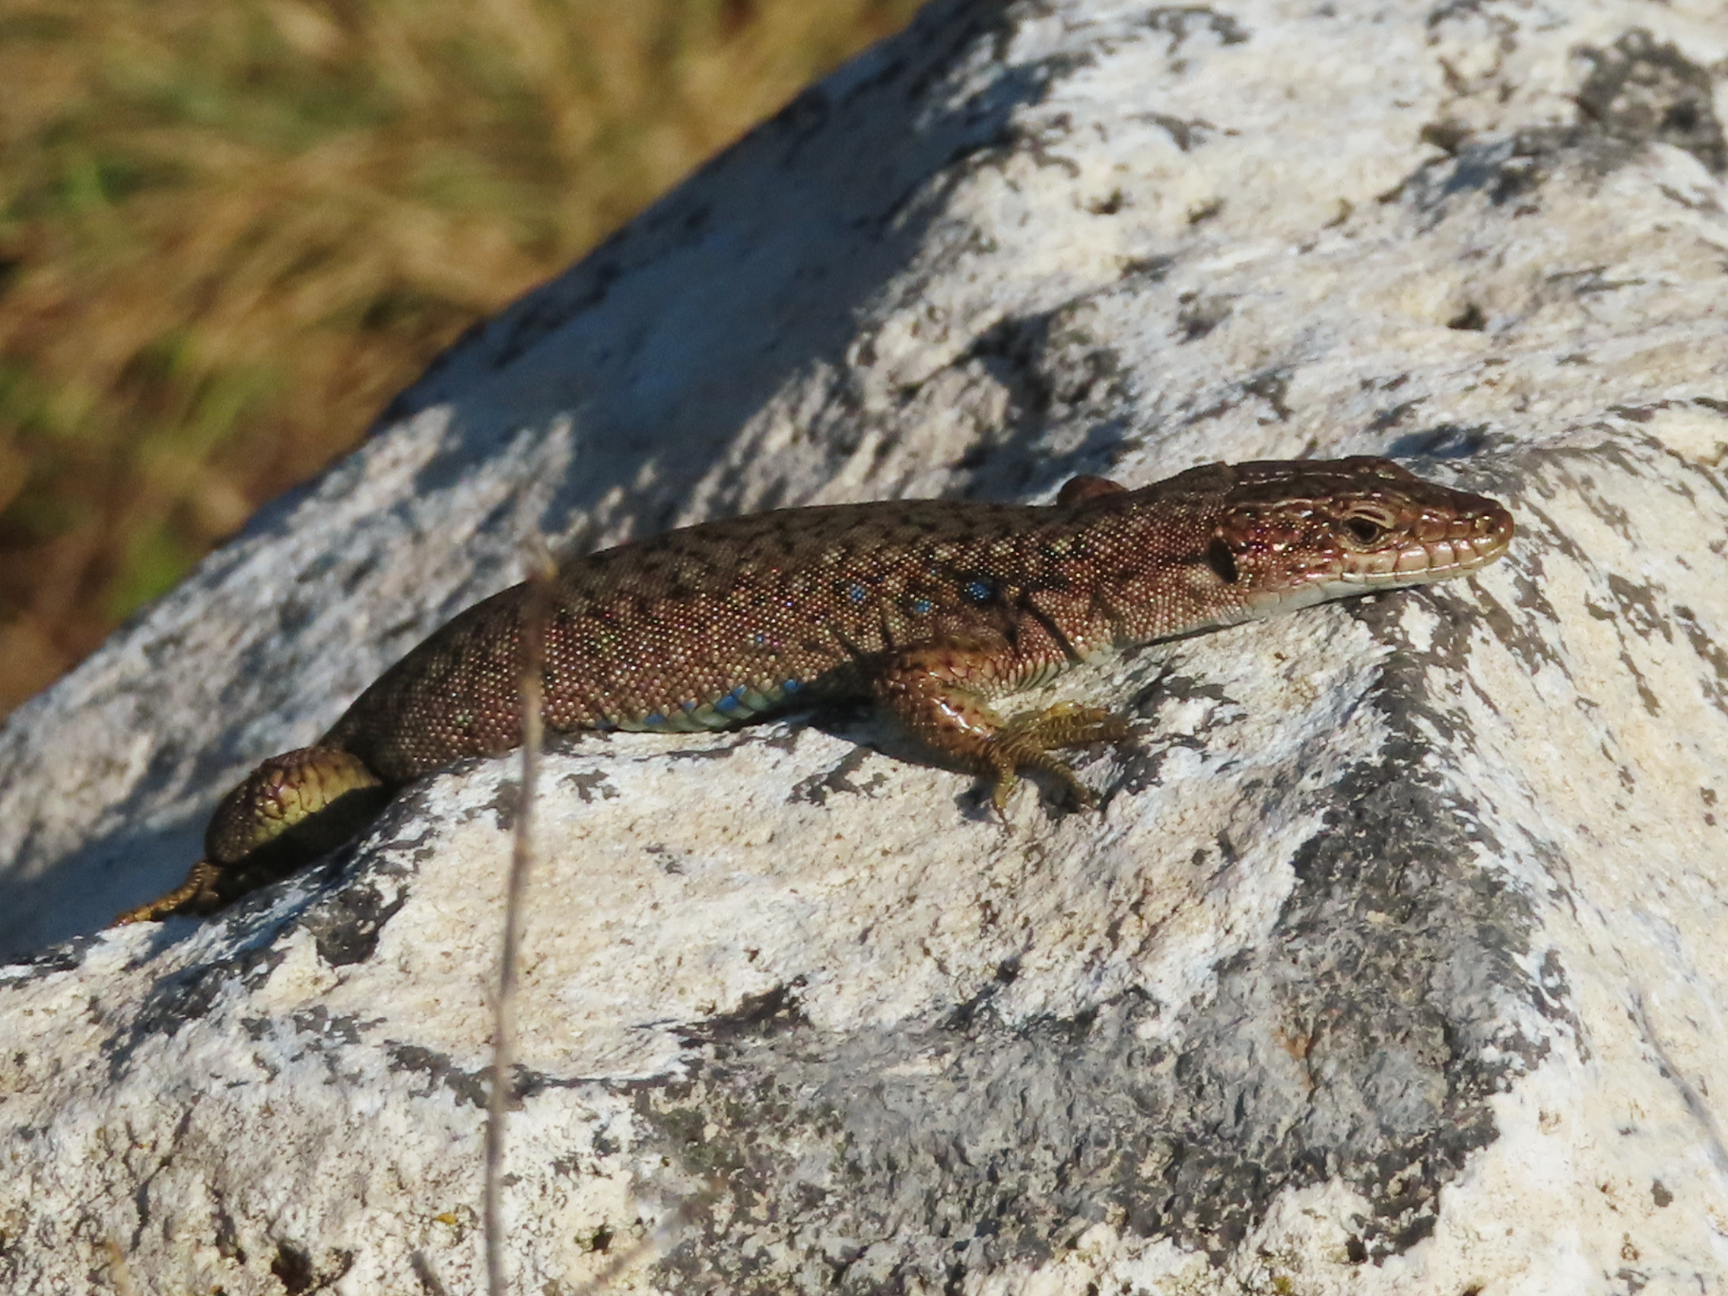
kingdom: Animalia
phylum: Chordata
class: Squamata
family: Lacertidae
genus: Darevskia
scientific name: Darevskia unisexualis
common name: Unisexual lizard
